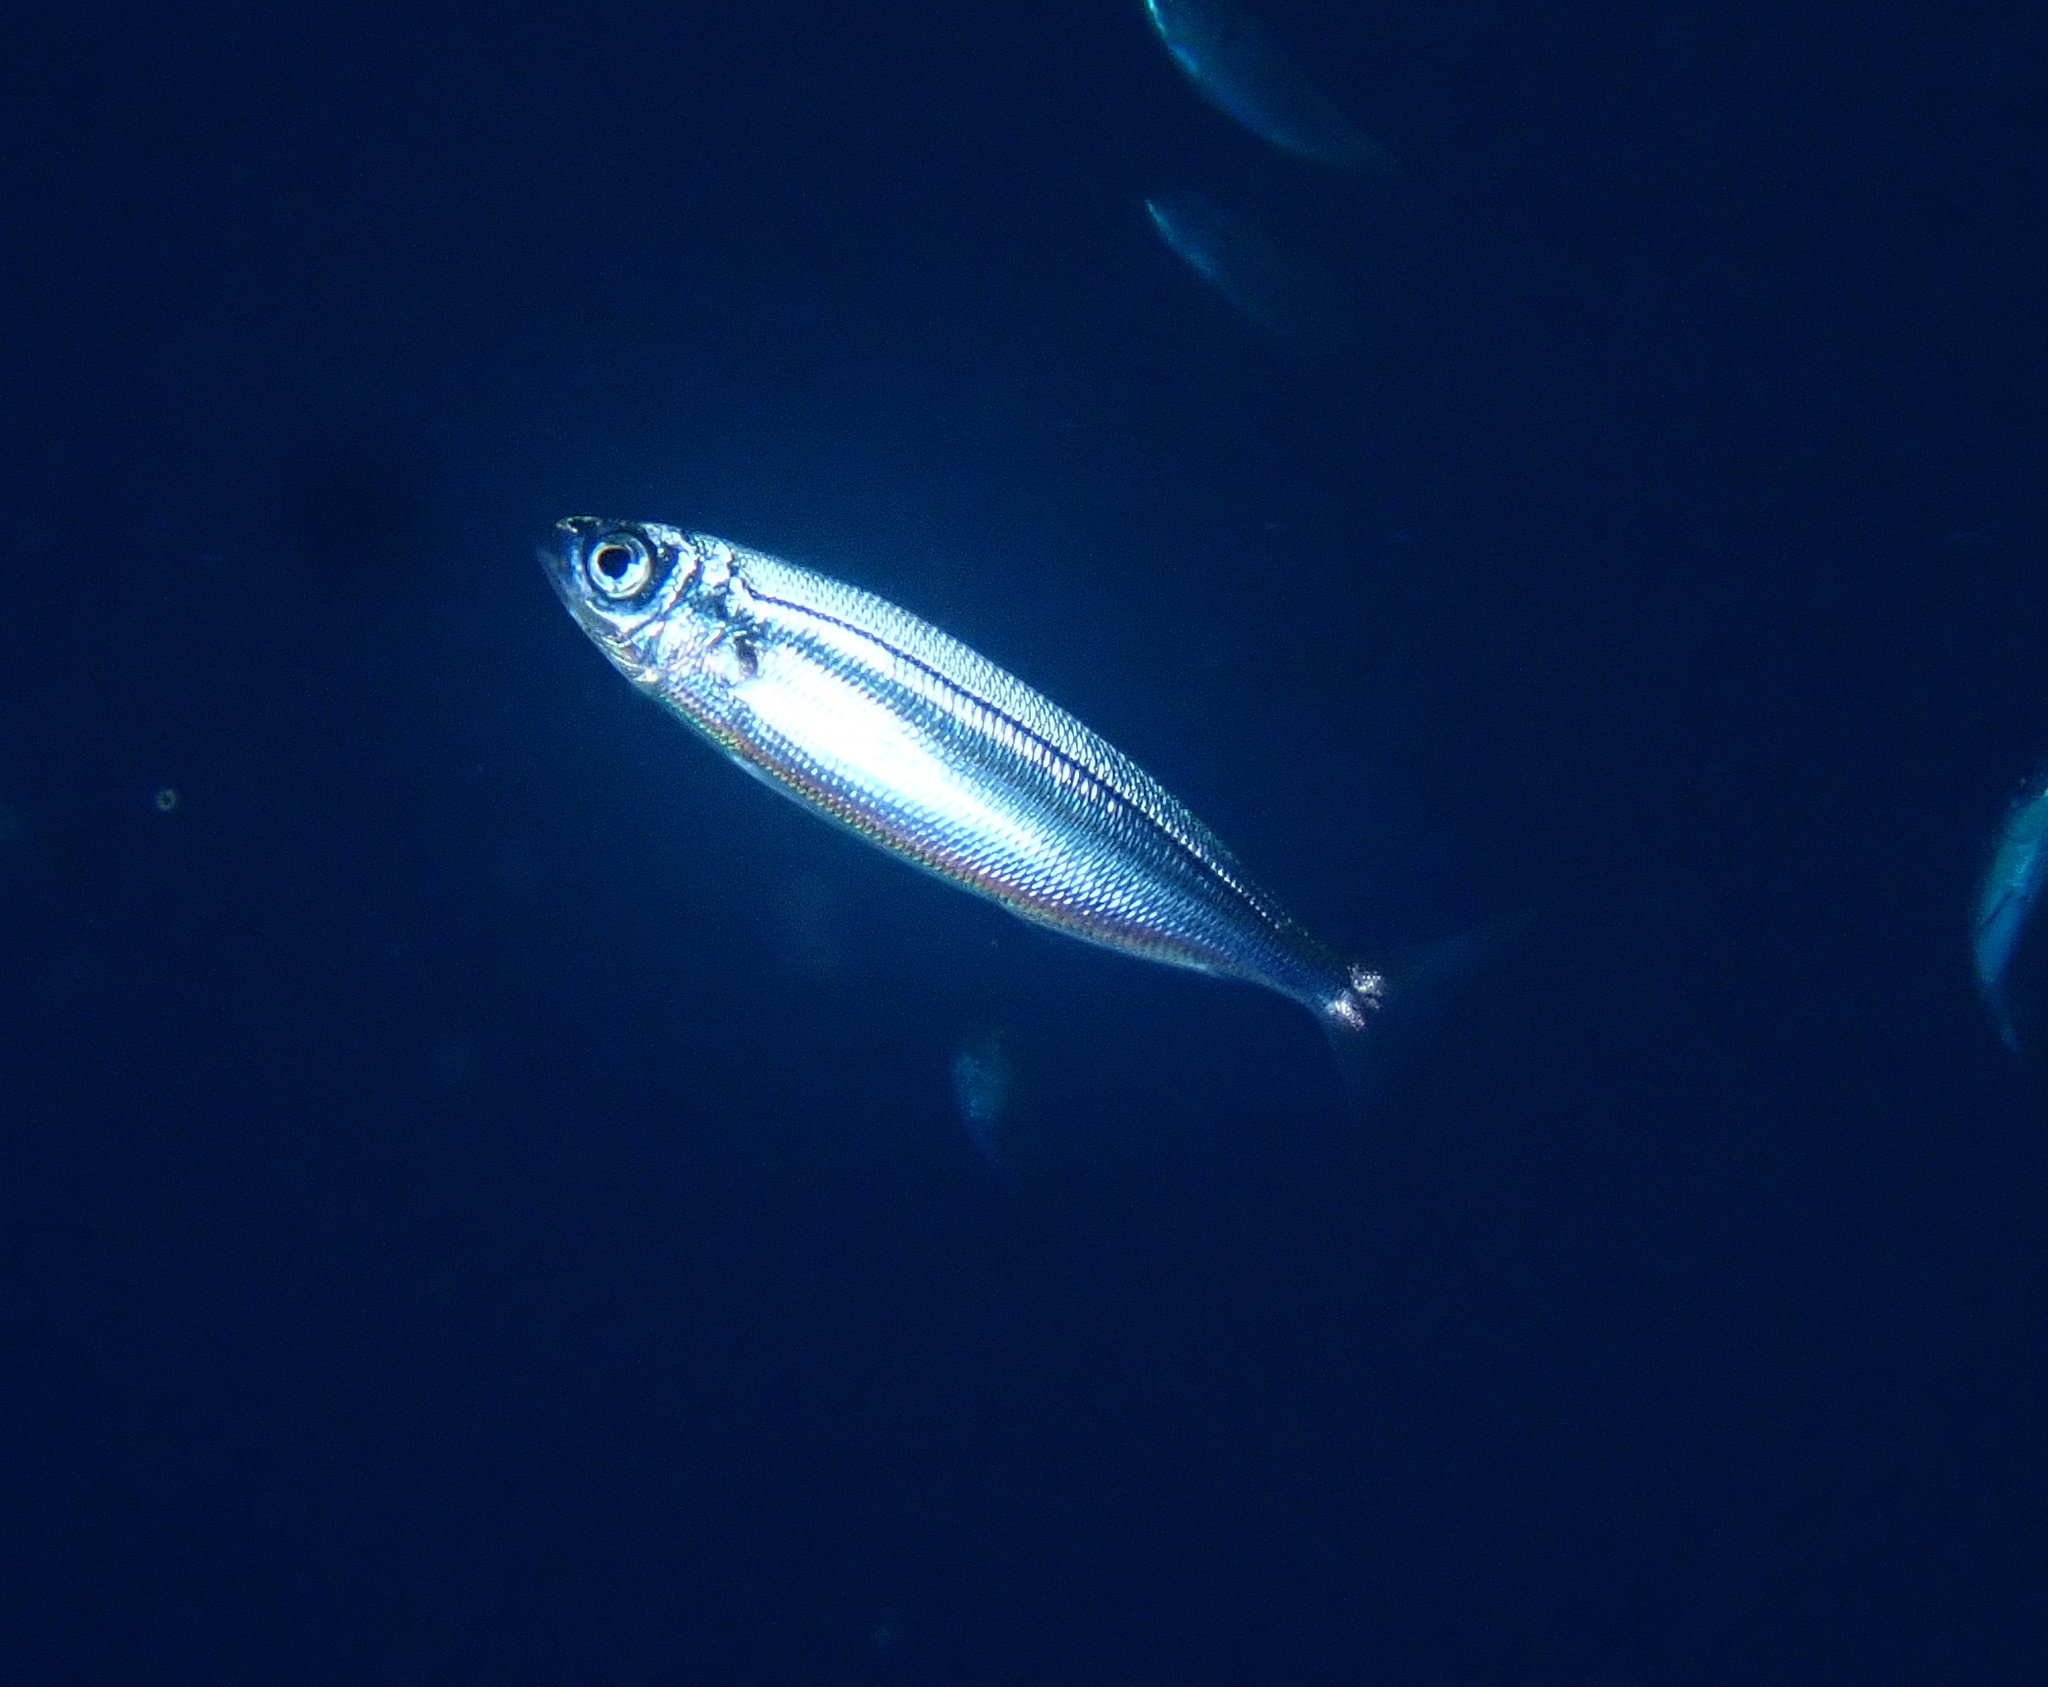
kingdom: Animalia
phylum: Chordata
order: Perciformes
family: Sparidae
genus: Boops
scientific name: Boops boops
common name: Bogue
